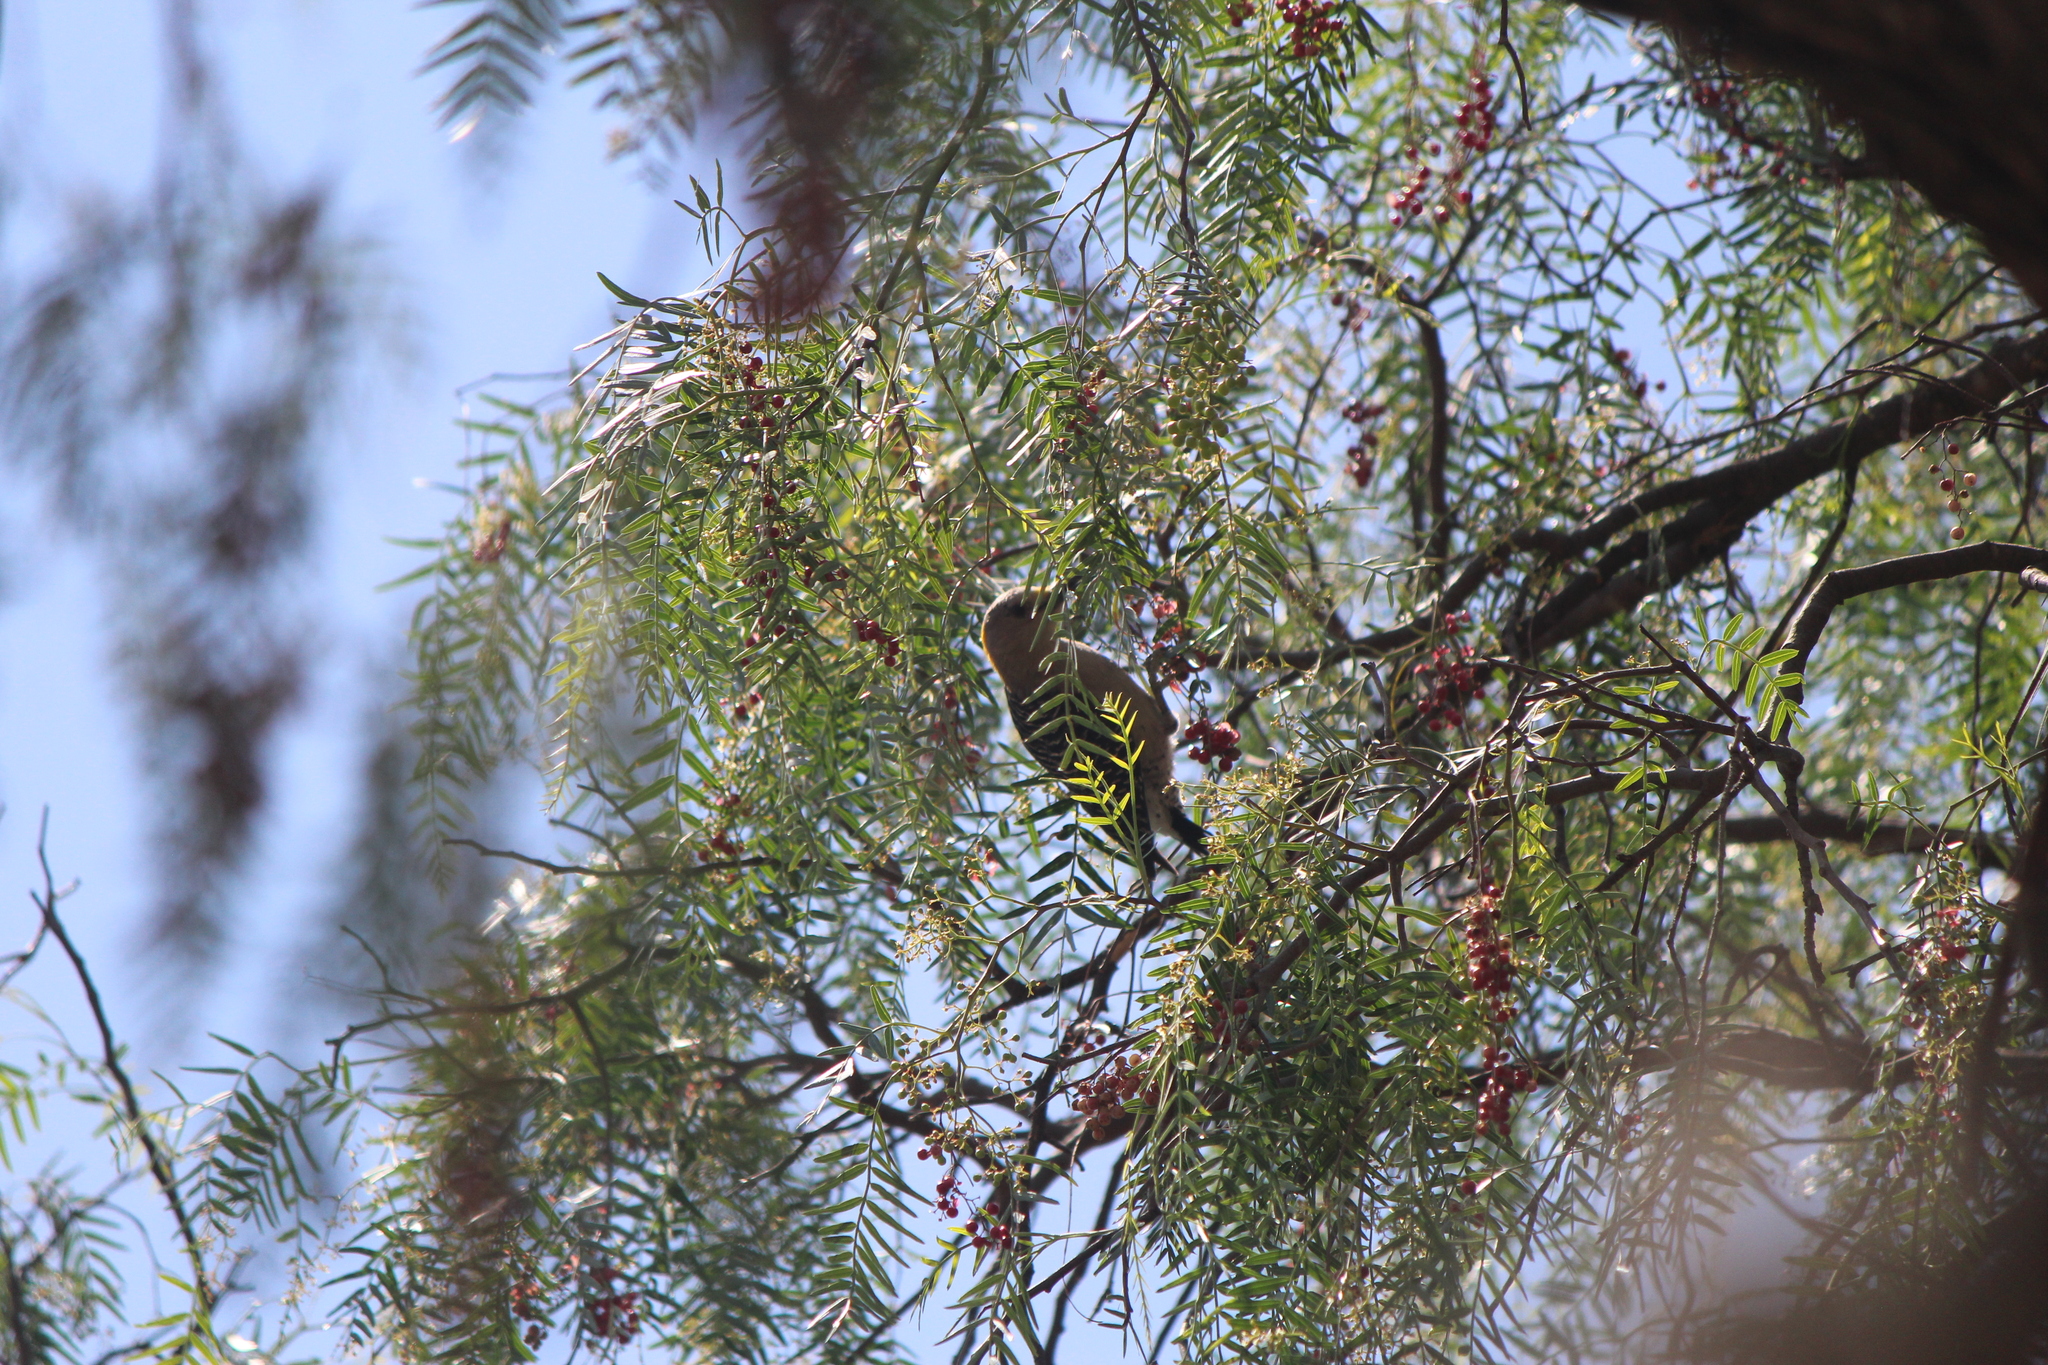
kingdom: Animalia
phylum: Chordata
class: Aves
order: Piciformes
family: Picidae
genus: Melanerpes
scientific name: Melanerpes aurifrons
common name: Golden-fronted woodpecker
